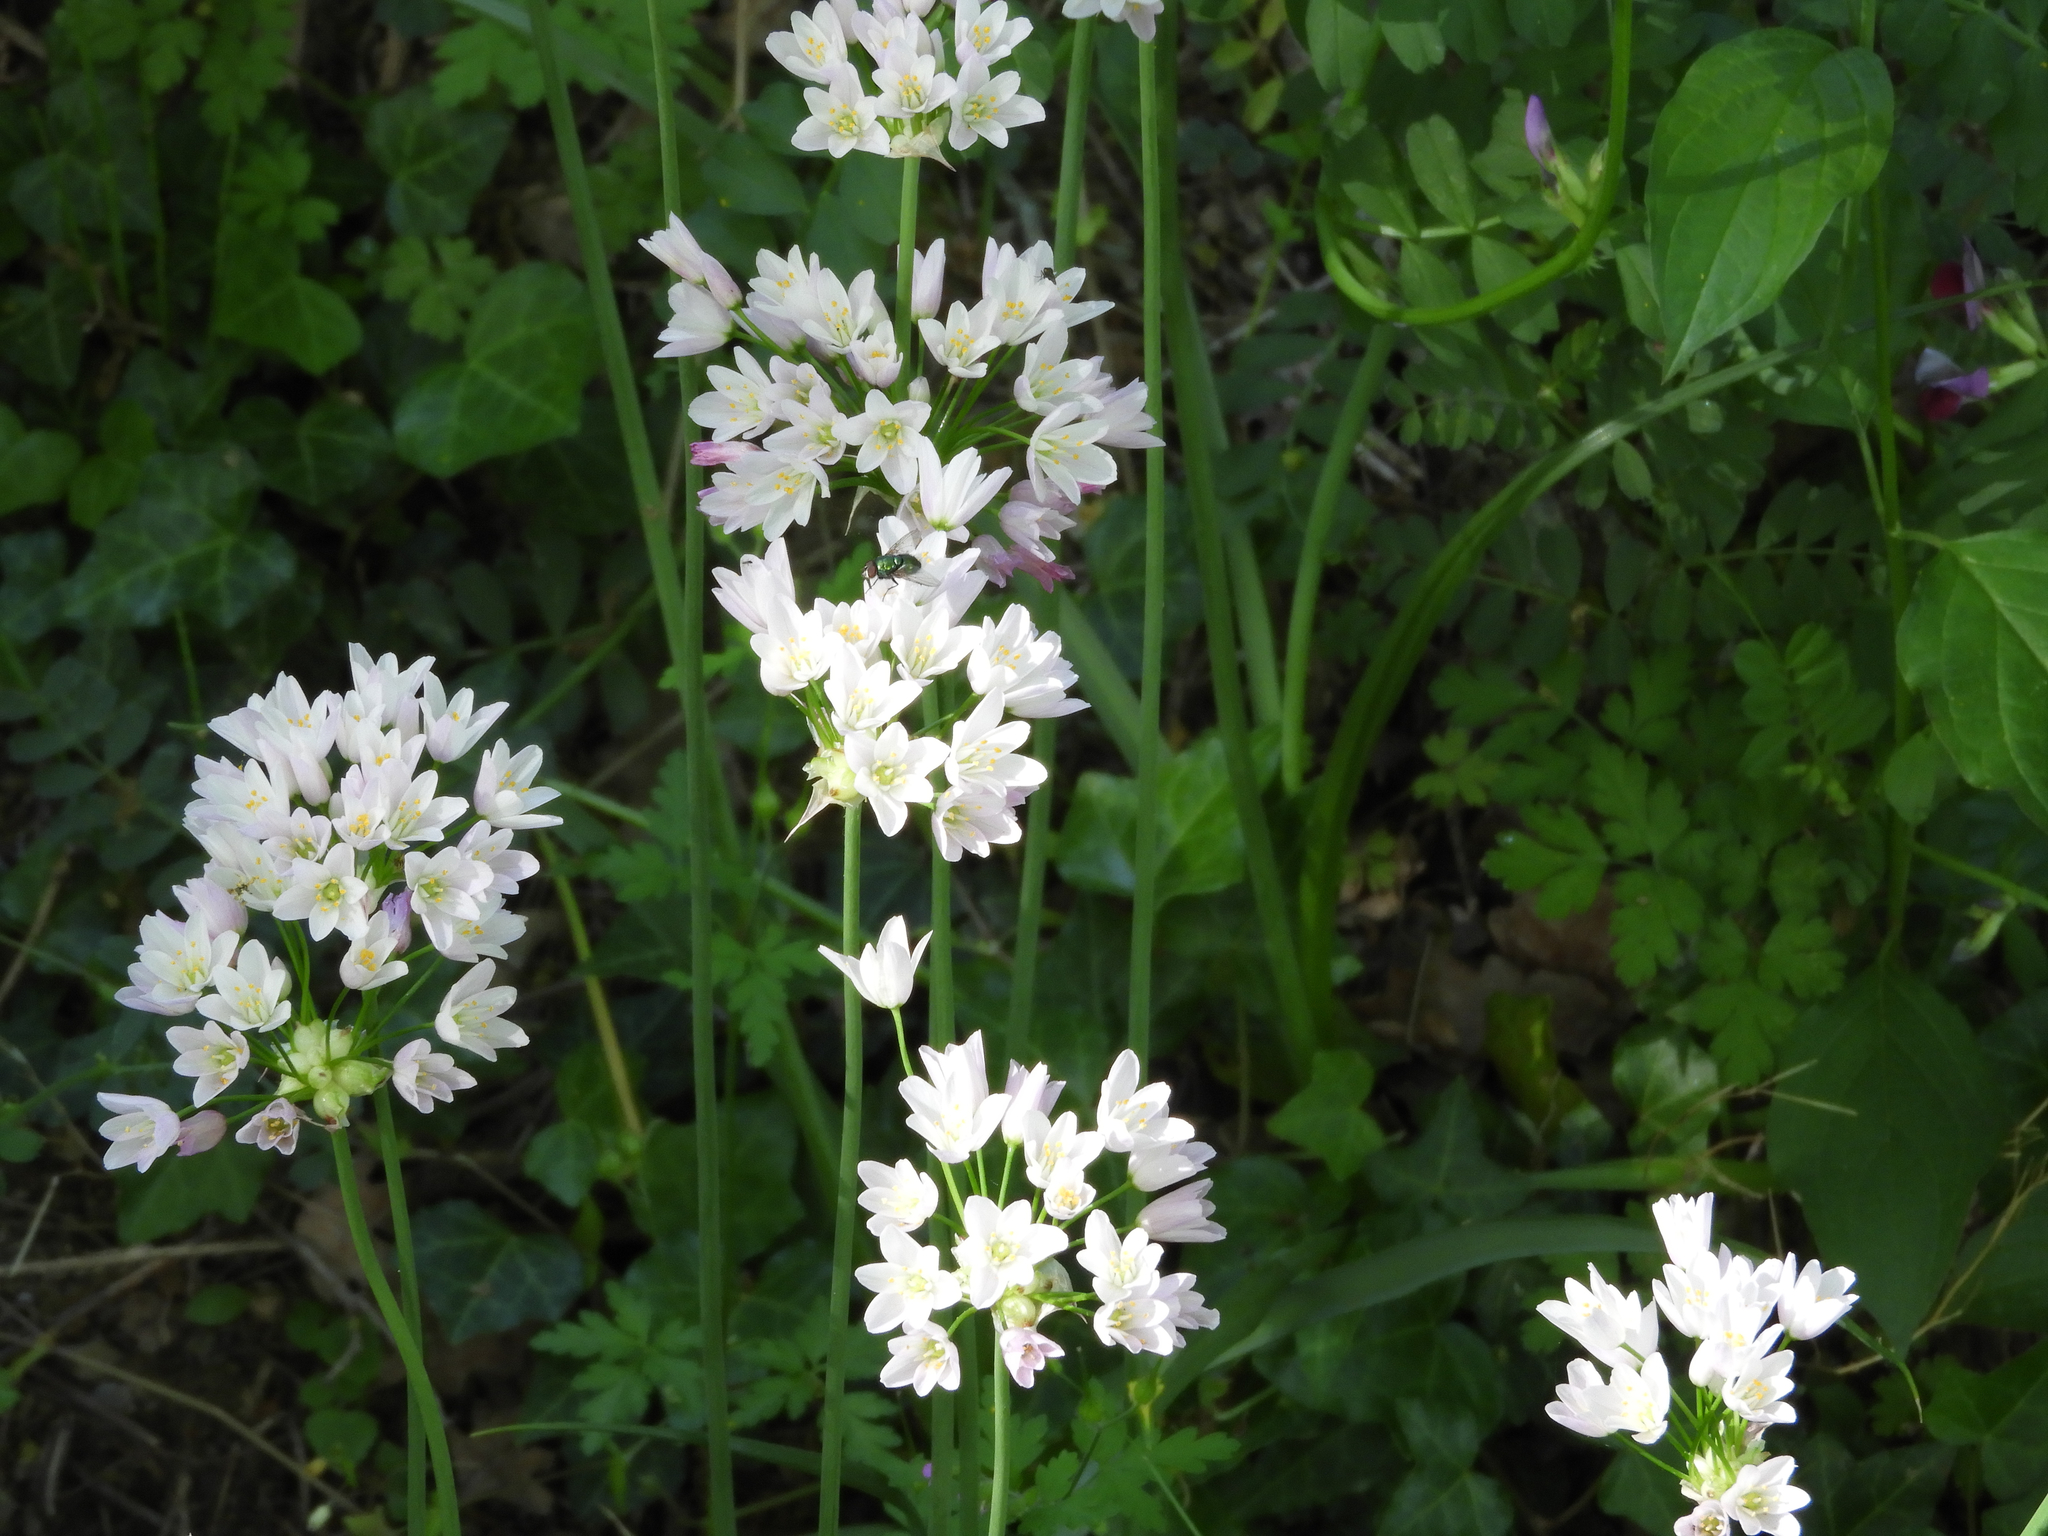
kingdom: Plantae
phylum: Tracheophyta
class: Liliopsida
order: Asparagales
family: Amaryllidaceae
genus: Allium
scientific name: Allium roseum
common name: Rosy garlic
